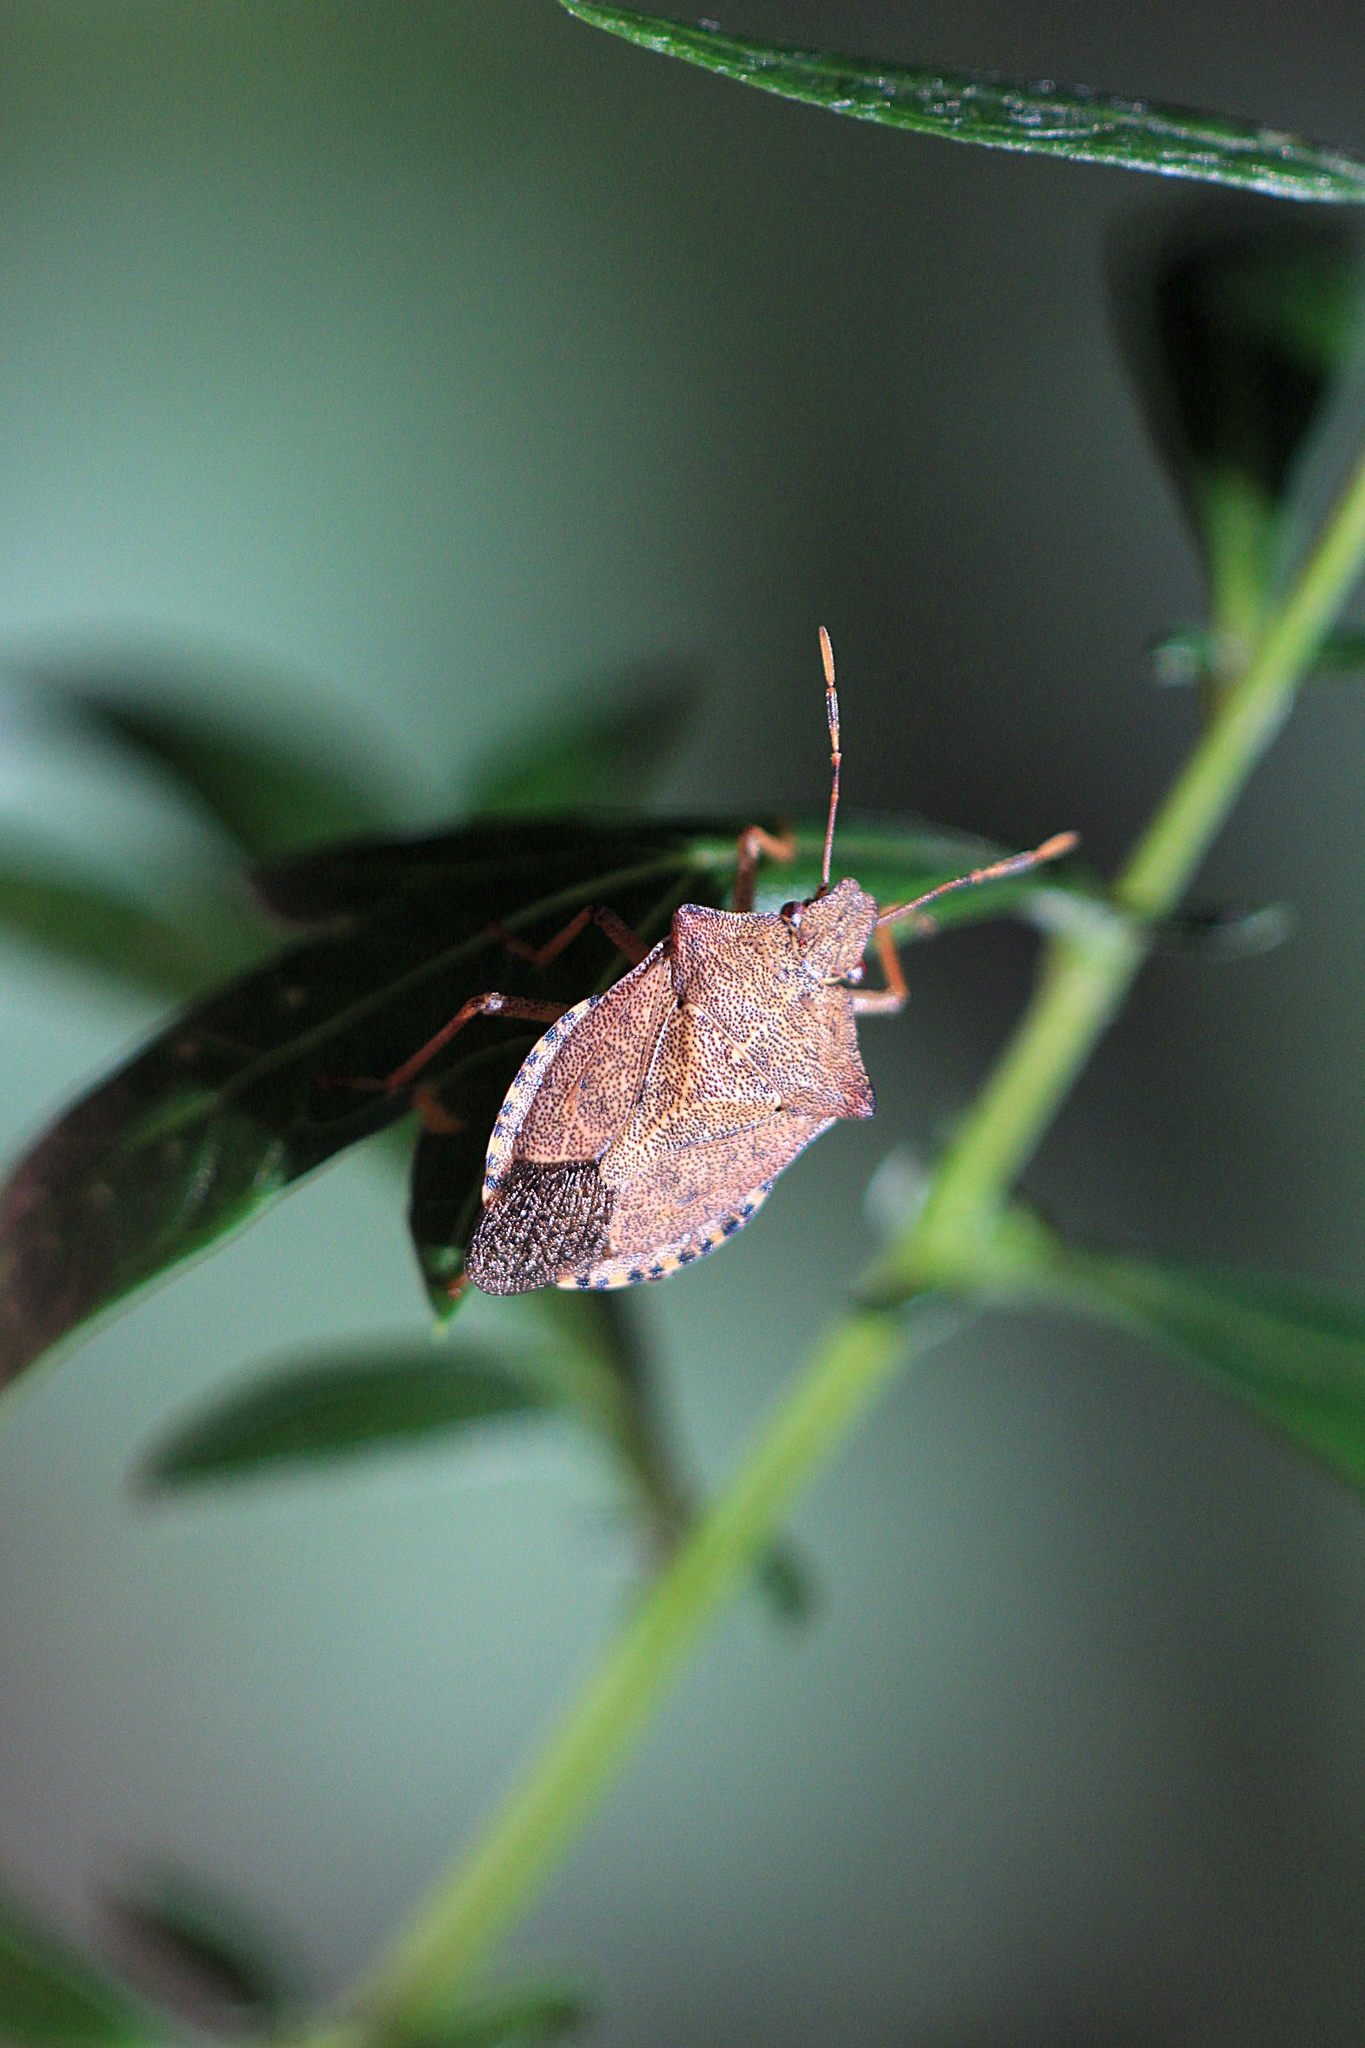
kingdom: Animalia
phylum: Arthropoda
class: Insecta
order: Hemiptera
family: Pentatomidae
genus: Arma
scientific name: Arma custos
